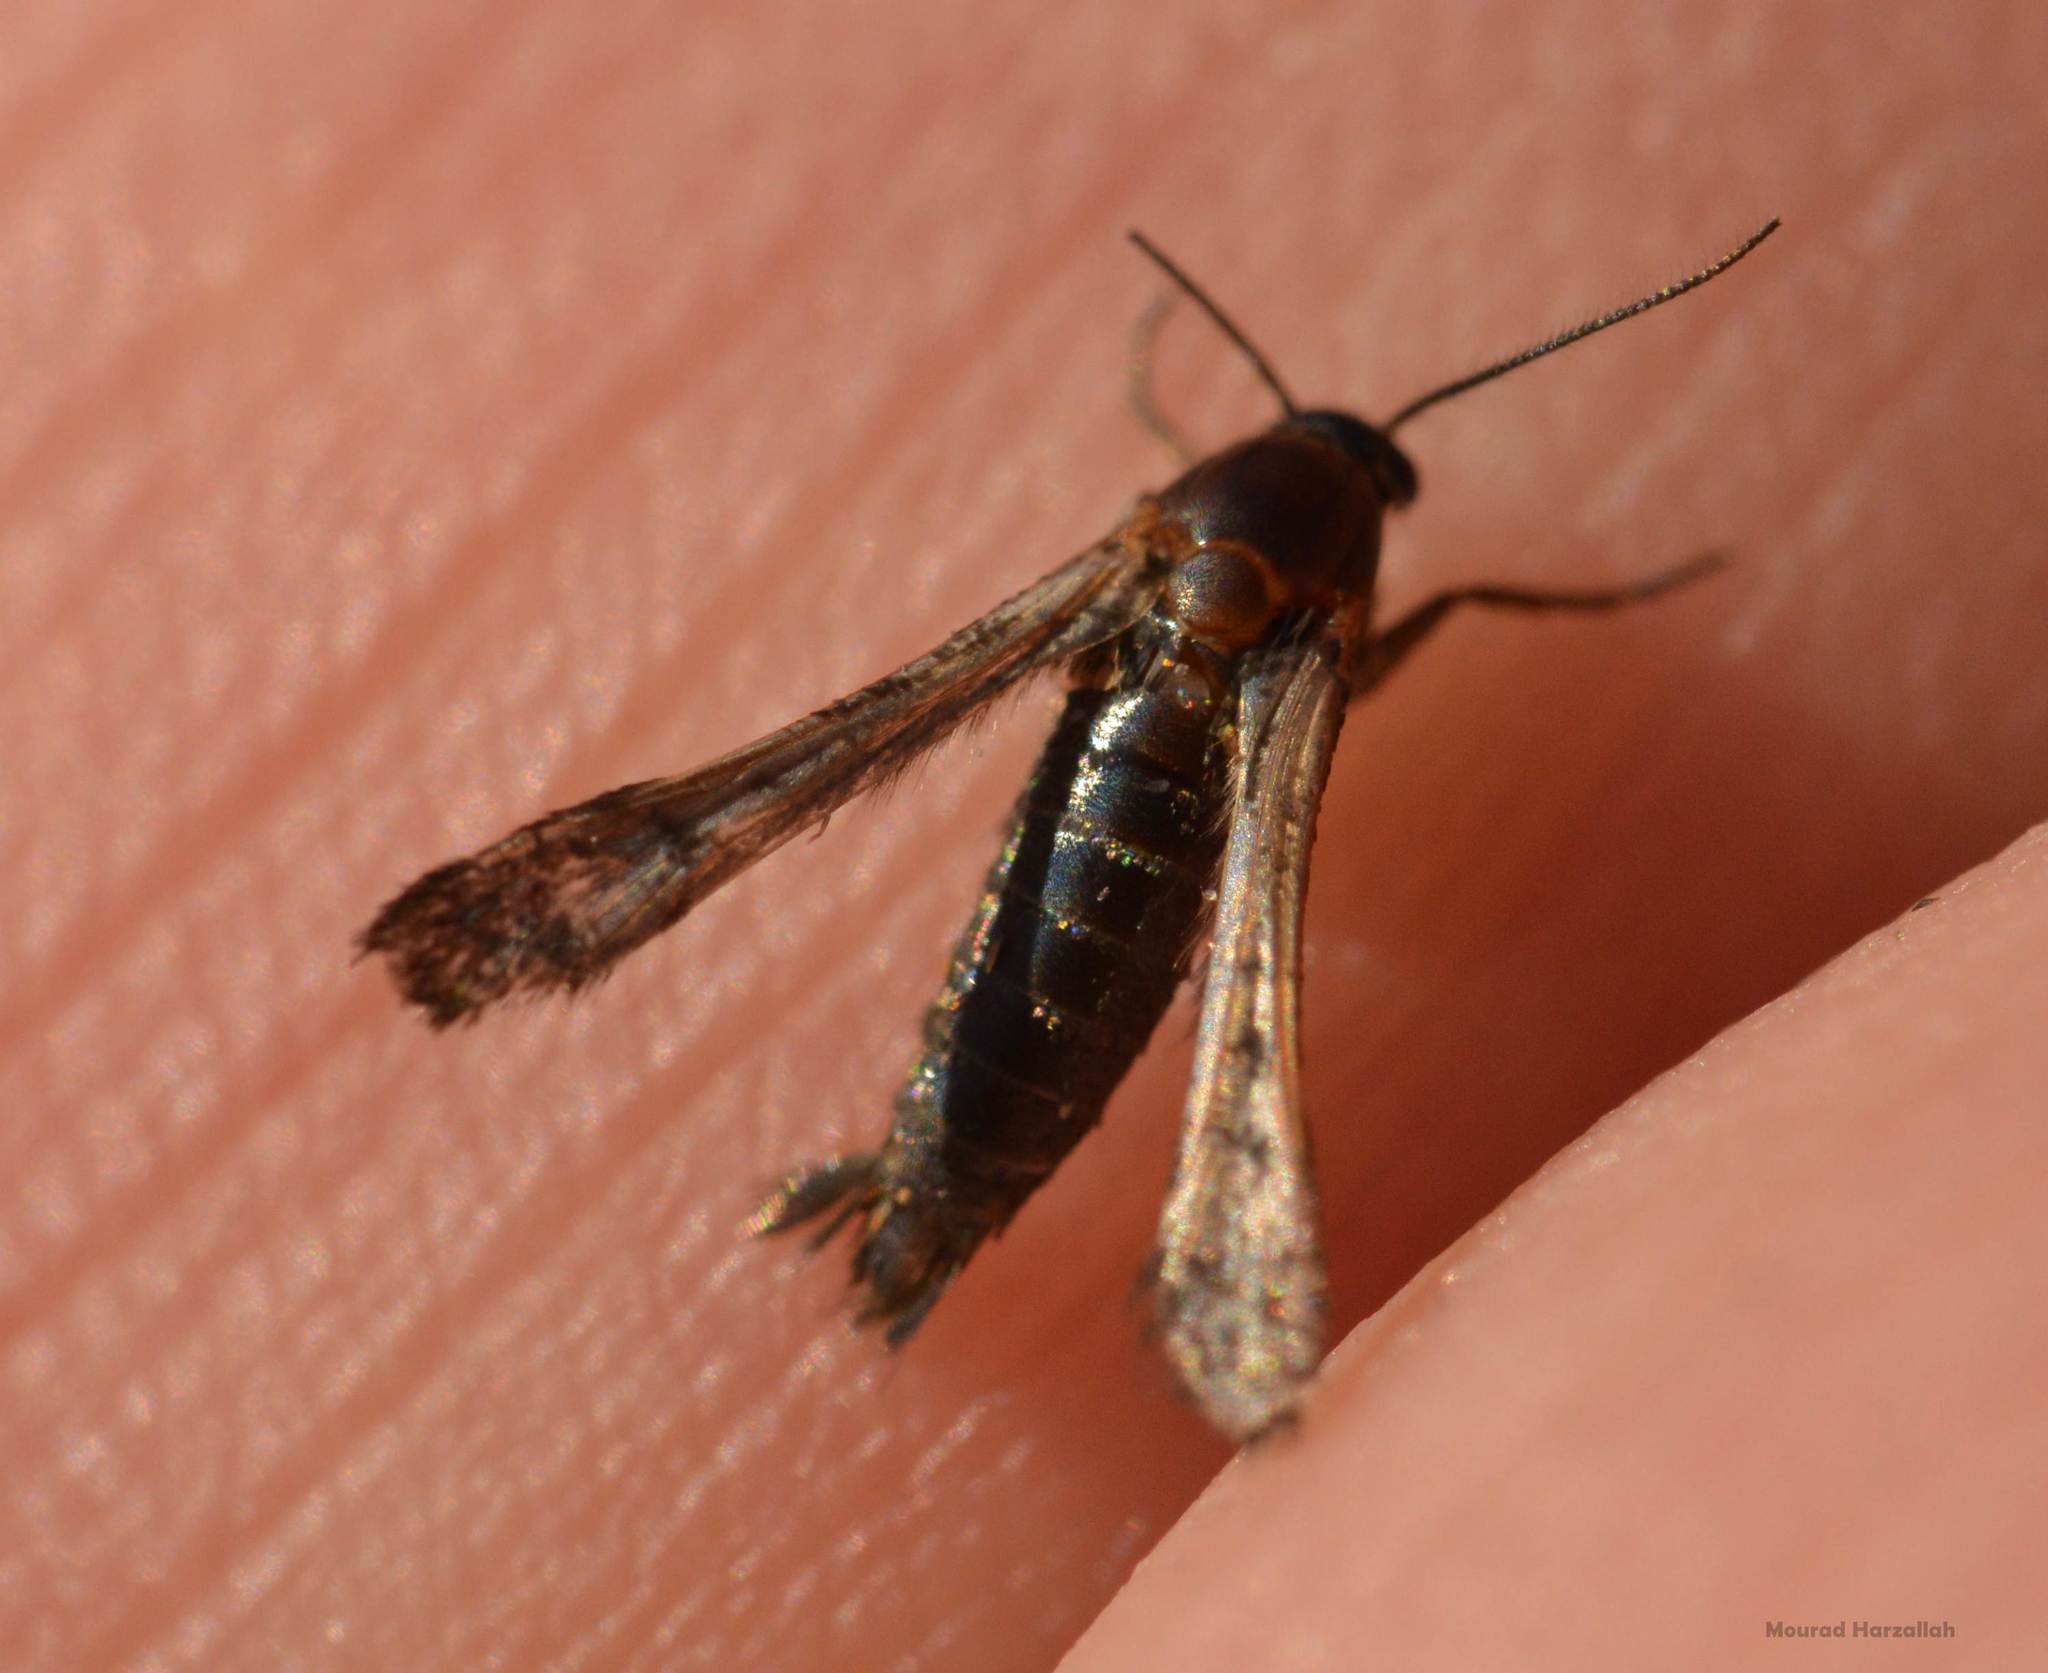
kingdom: Animalia
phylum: Arthropoda
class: Insecta
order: Lepidoptera
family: Sesiidae
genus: Microsphecia
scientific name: Microsphecia tineiformis
